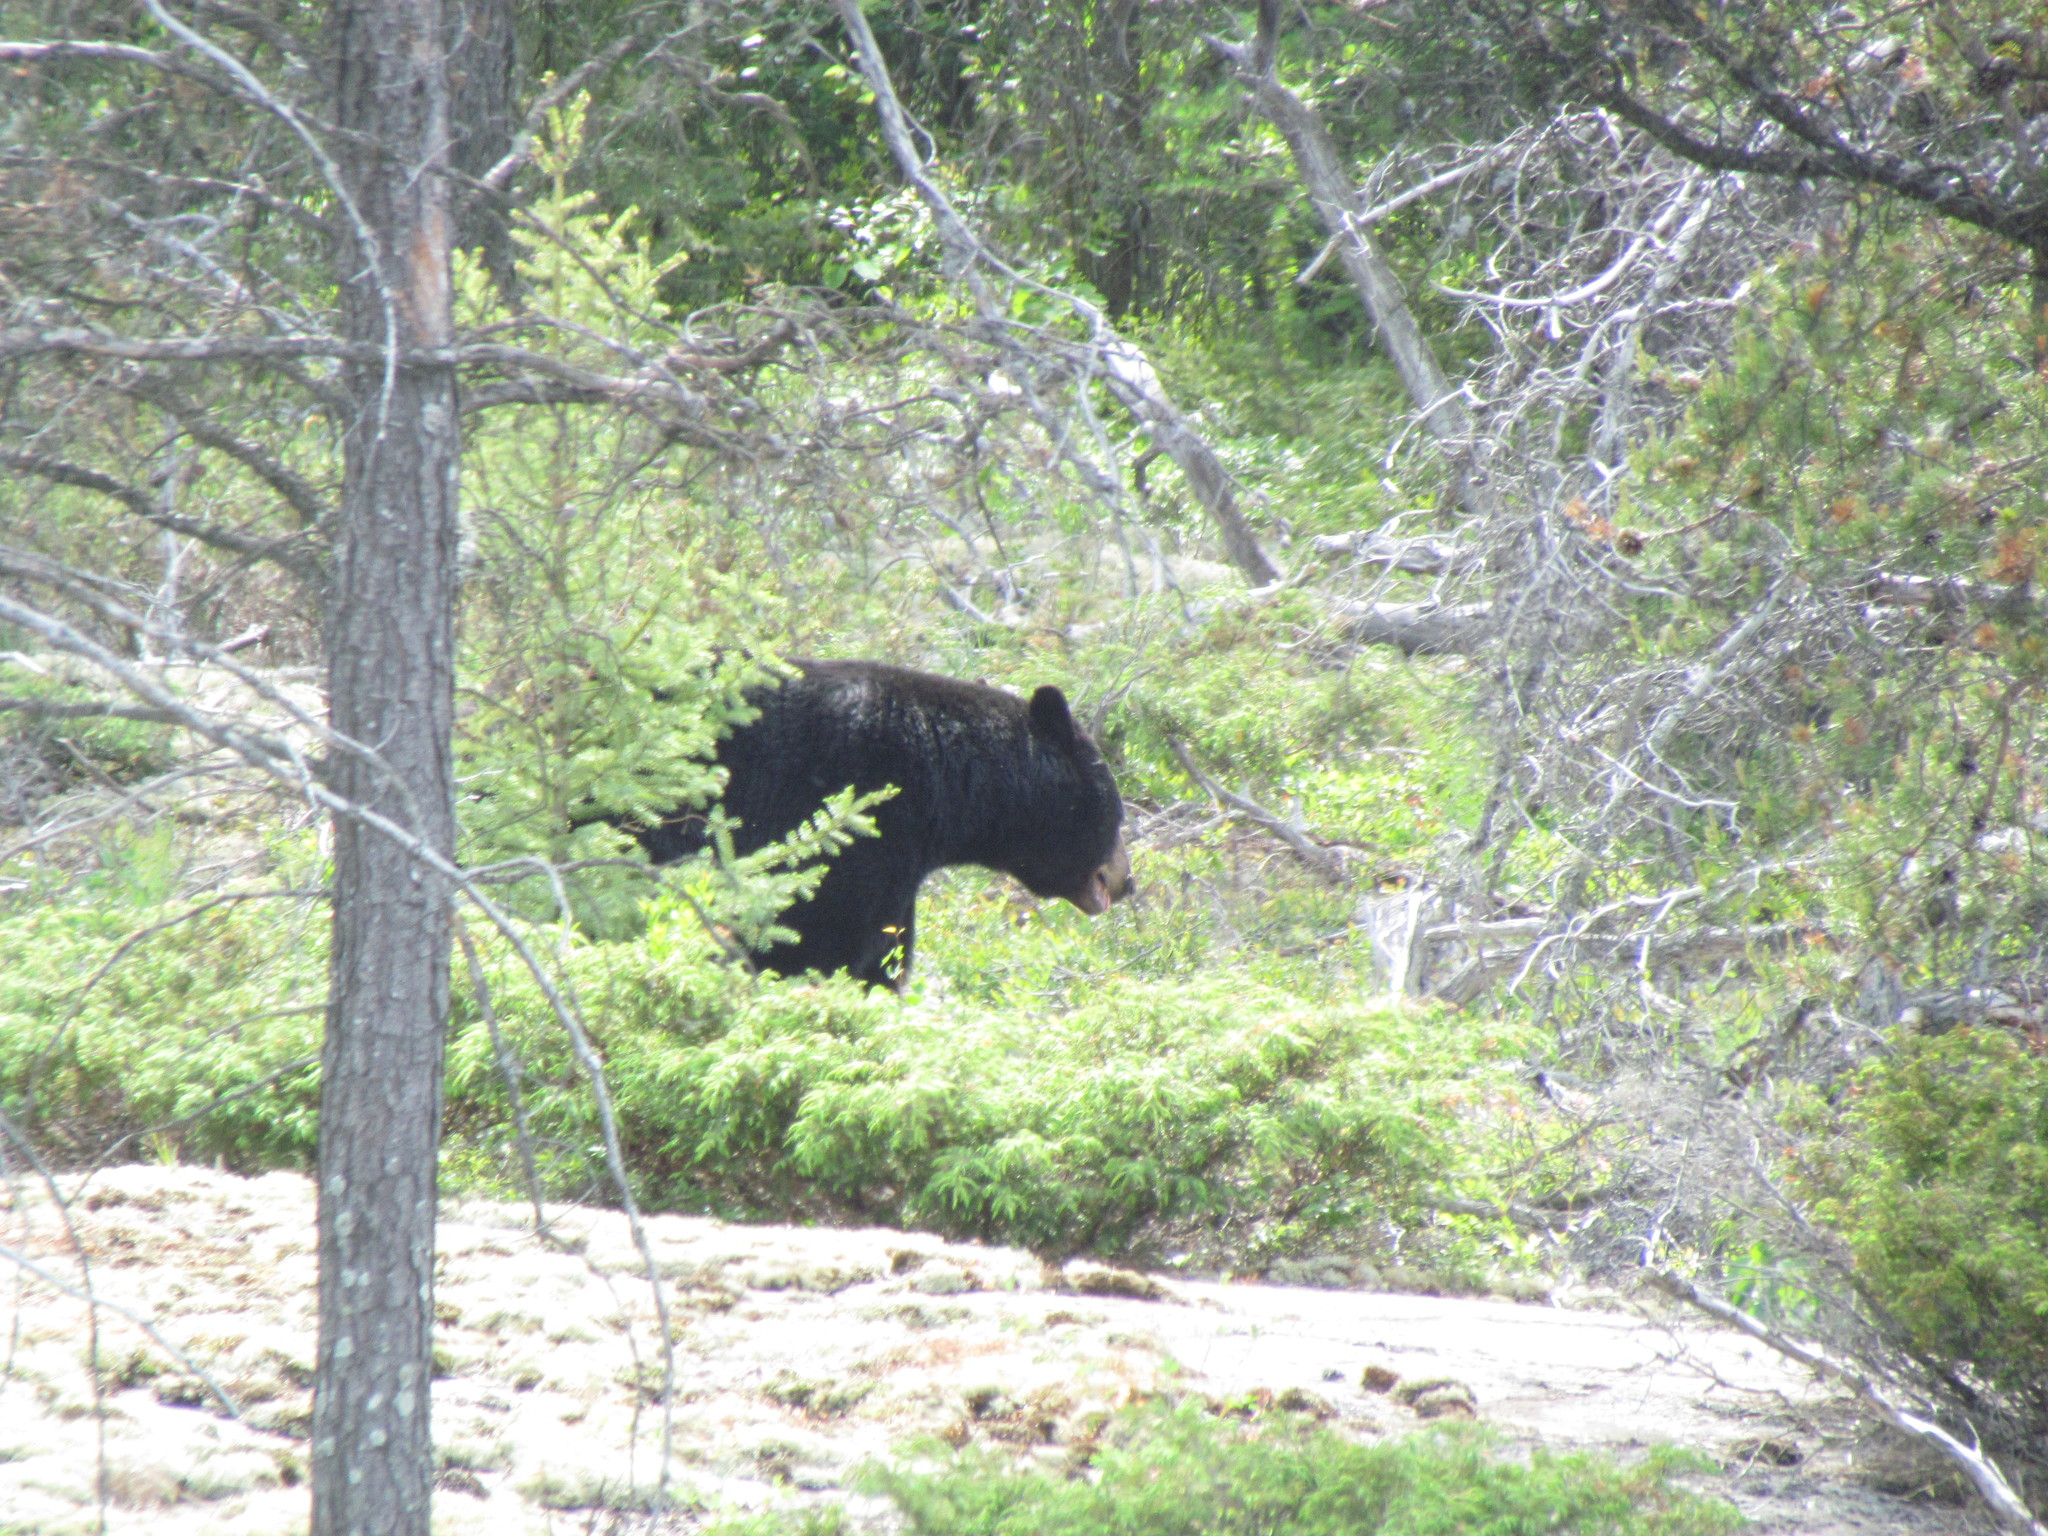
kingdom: Animalia
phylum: Chordata
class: Mammalia
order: Carnivora
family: Ursidae
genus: Ursus
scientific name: Ursus americanus
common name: American black bear
